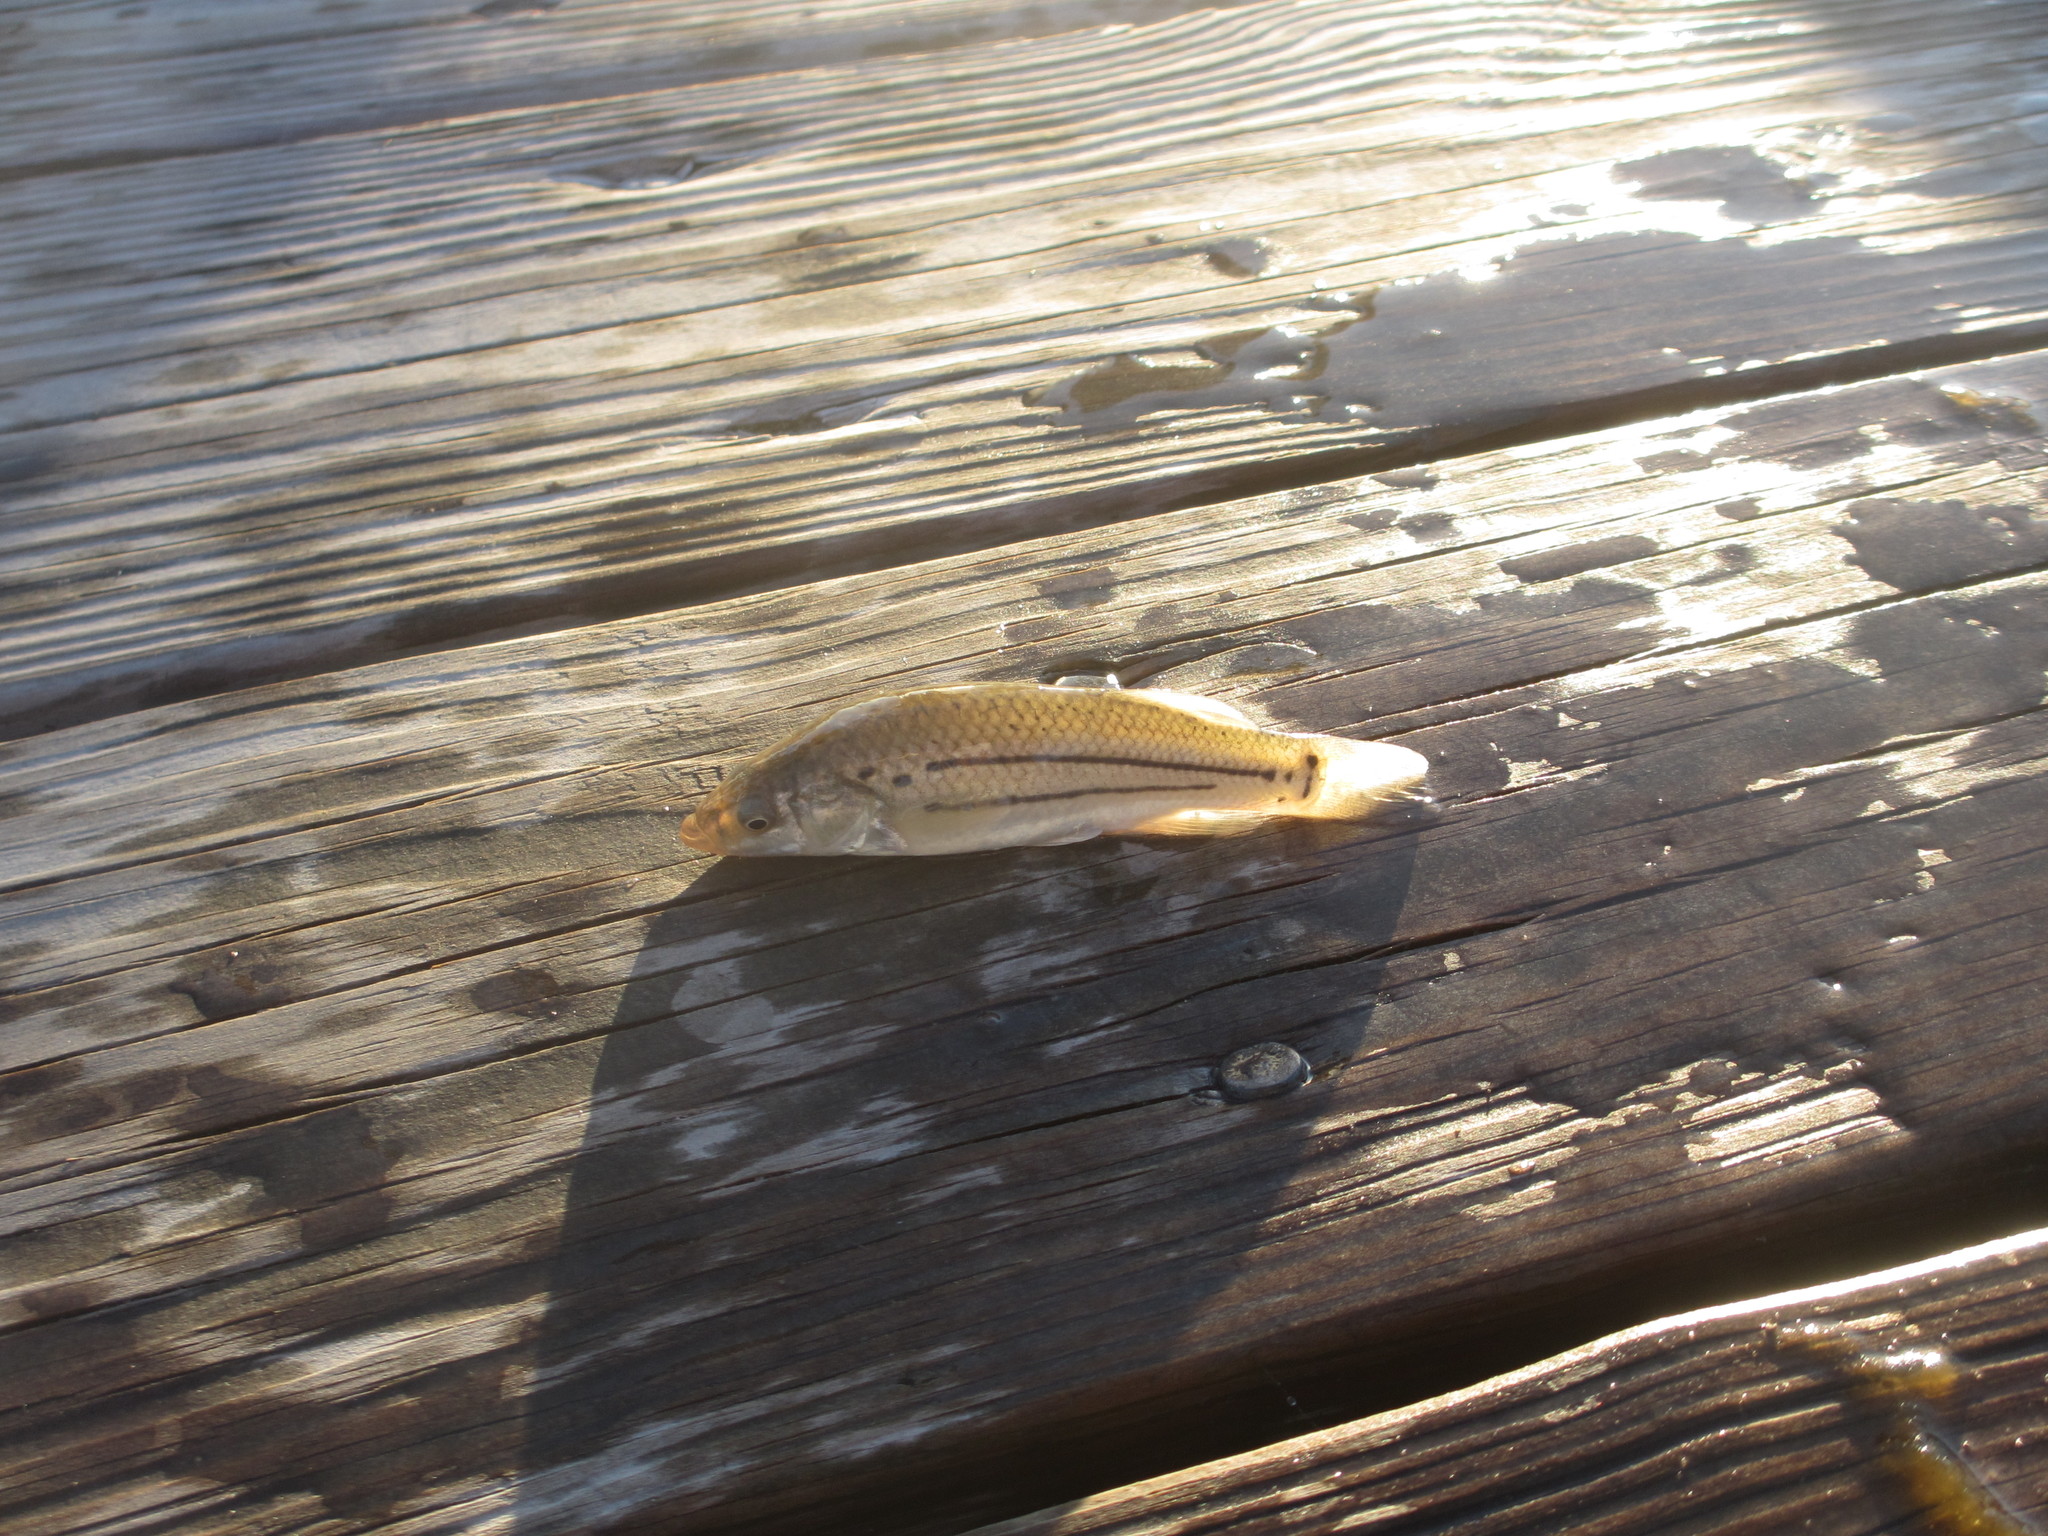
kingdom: Animalia
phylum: Chordata
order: Cyprinodontiformes
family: Fundulidae
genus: Fundulus
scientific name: Fundulus majalis
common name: Striped killifish
